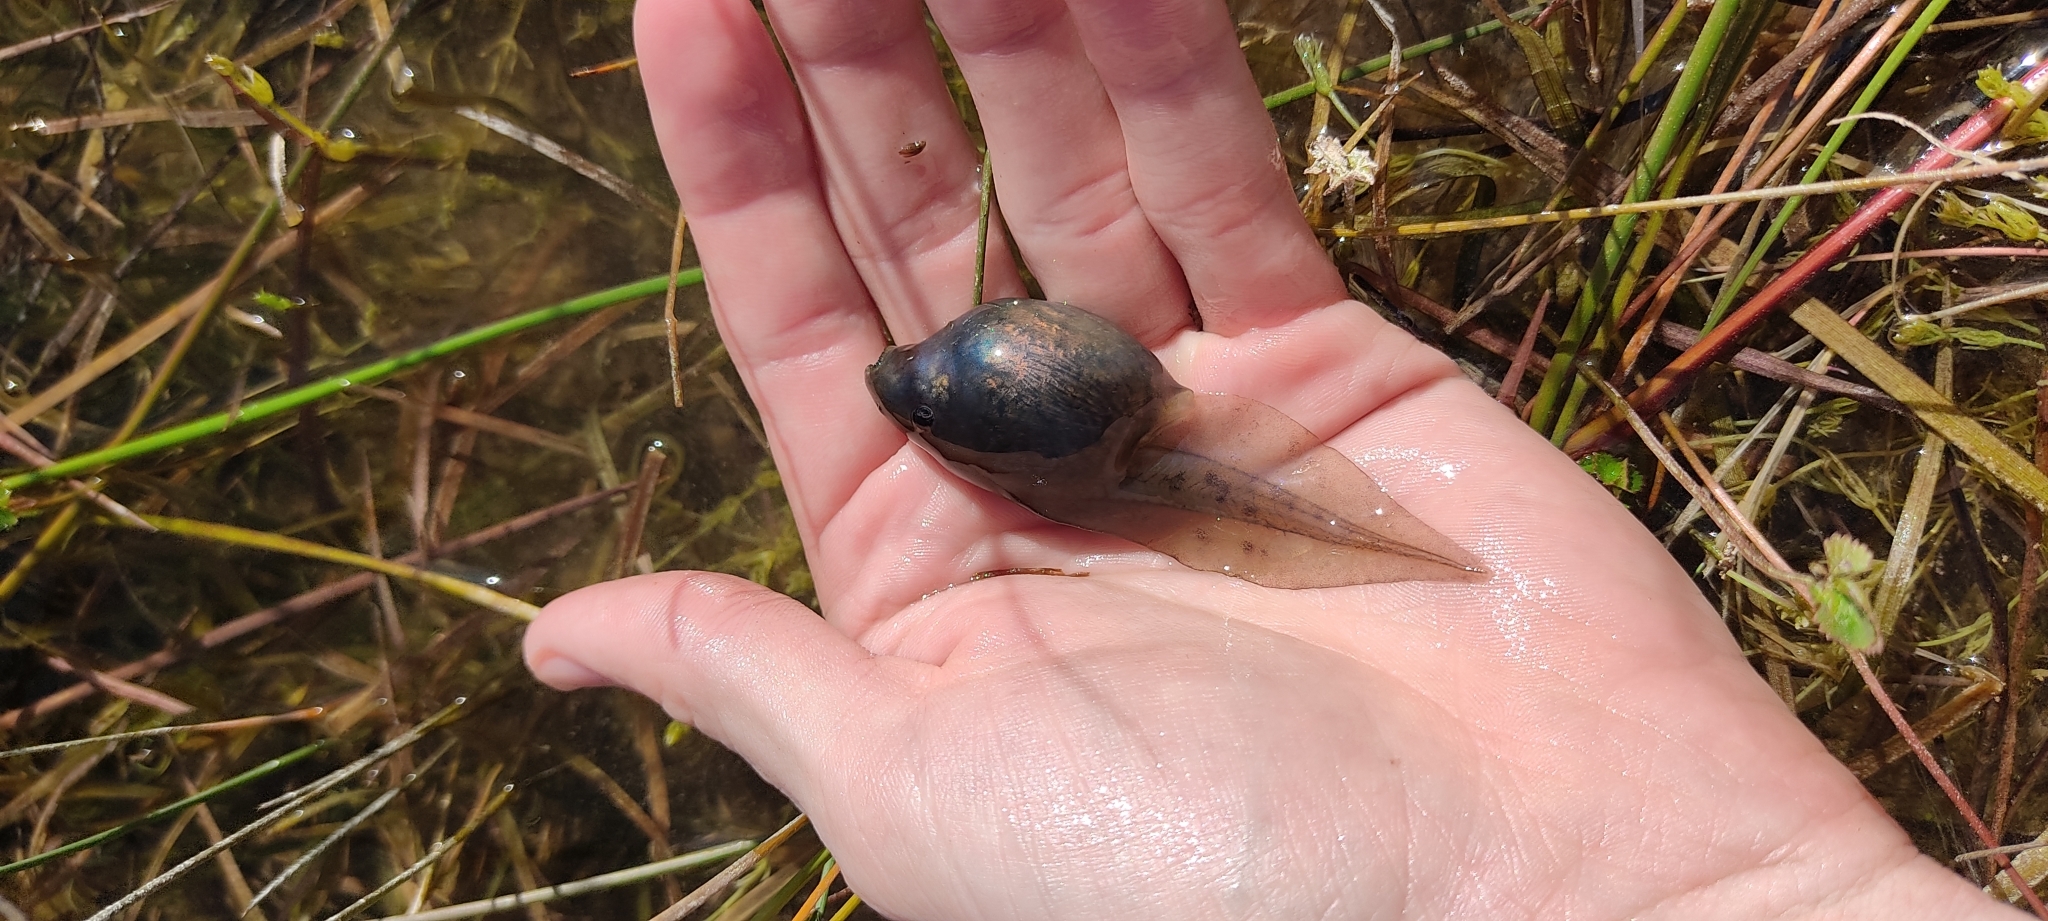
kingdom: Animalia
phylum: Chordata
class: Amphibia
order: Anura
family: Pelobatidae
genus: Pelobates
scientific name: Pelobates cultripes
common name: Western spadefoot
